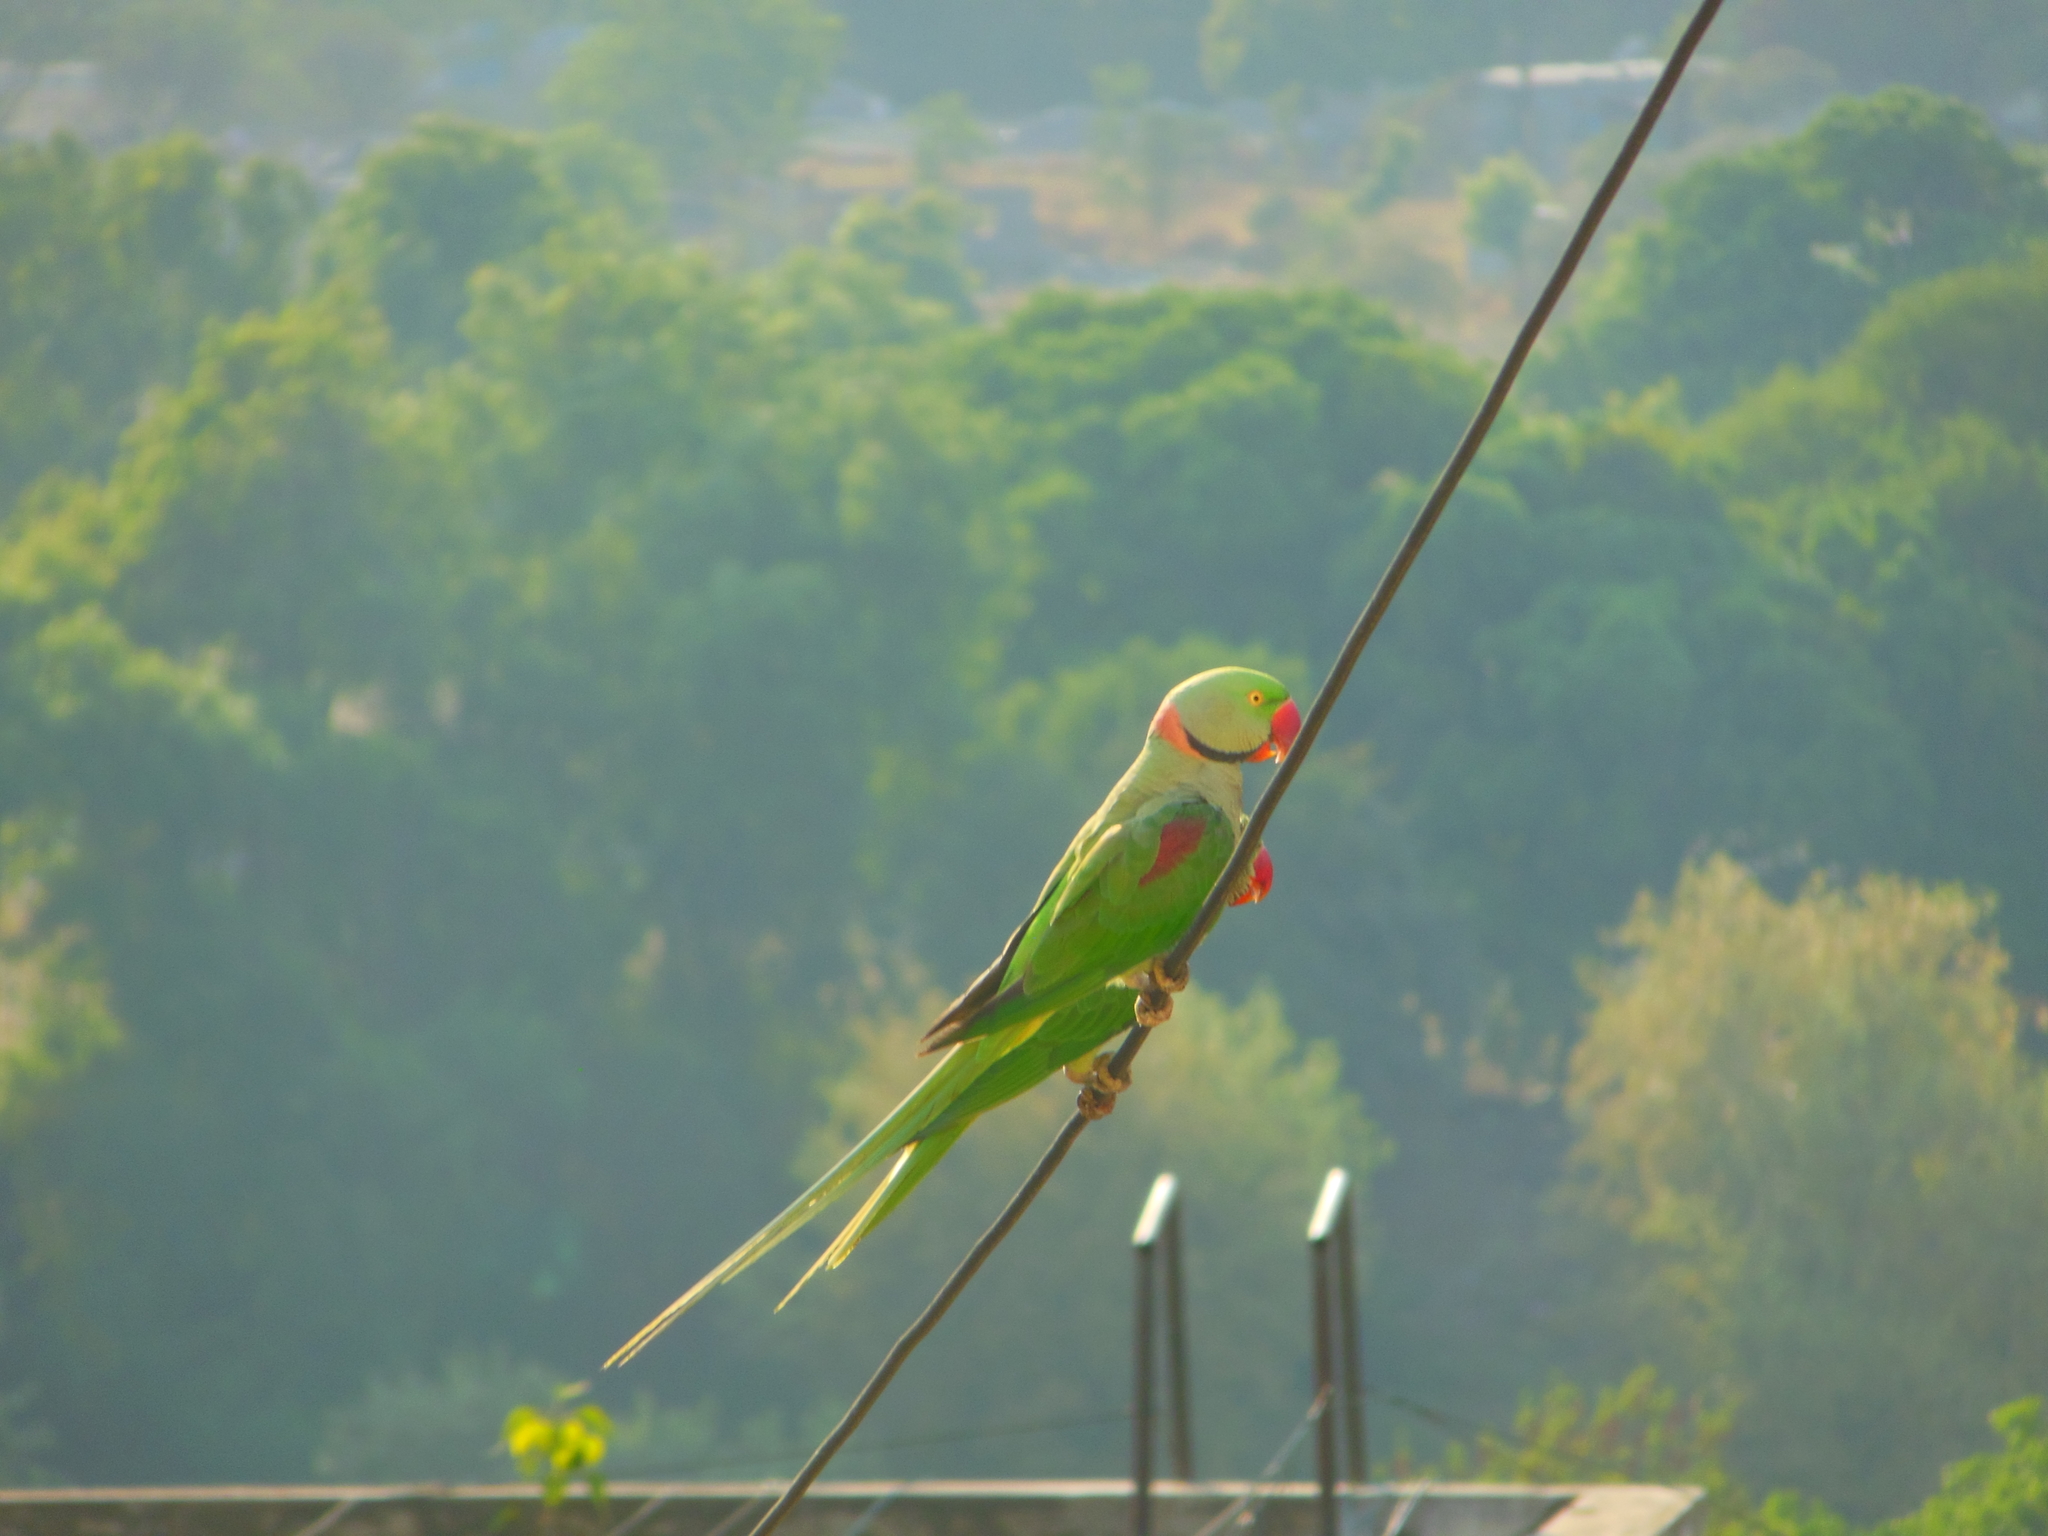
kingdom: Animalia
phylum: Chordata
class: Aves
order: Psittaciformes
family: Psittacidae
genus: Psittacula
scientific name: Psittacula eupatria
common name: Alexandrine parakeet
